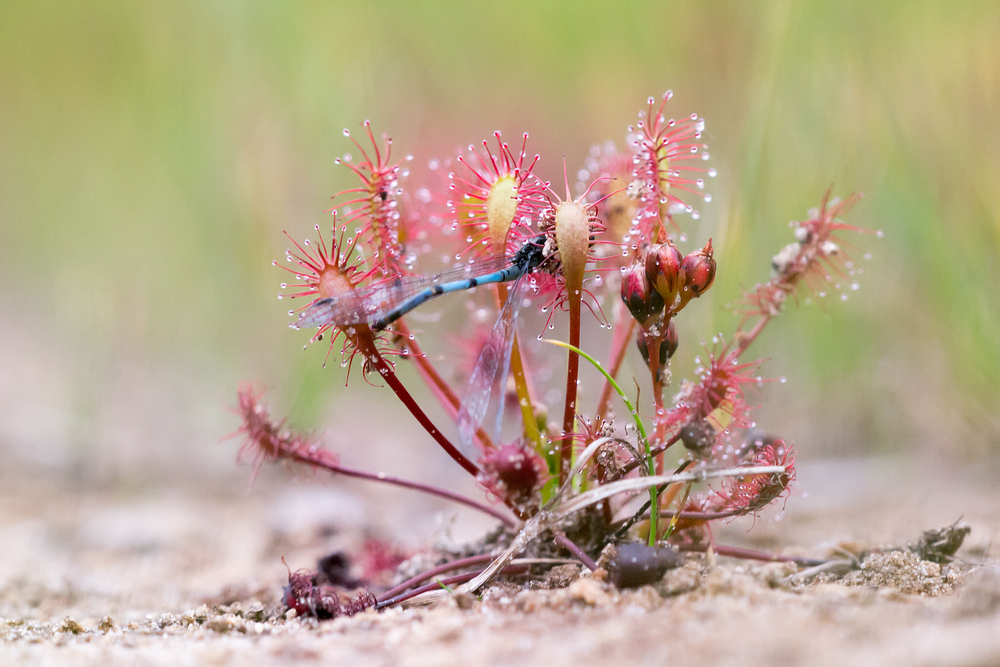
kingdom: Plantae
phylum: Tracheophyta
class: Magnoliopsida
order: Caryophyllales
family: Droseraceae
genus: Drosera
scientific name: Drosera intermedia
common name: Oblong-leaved sundew
